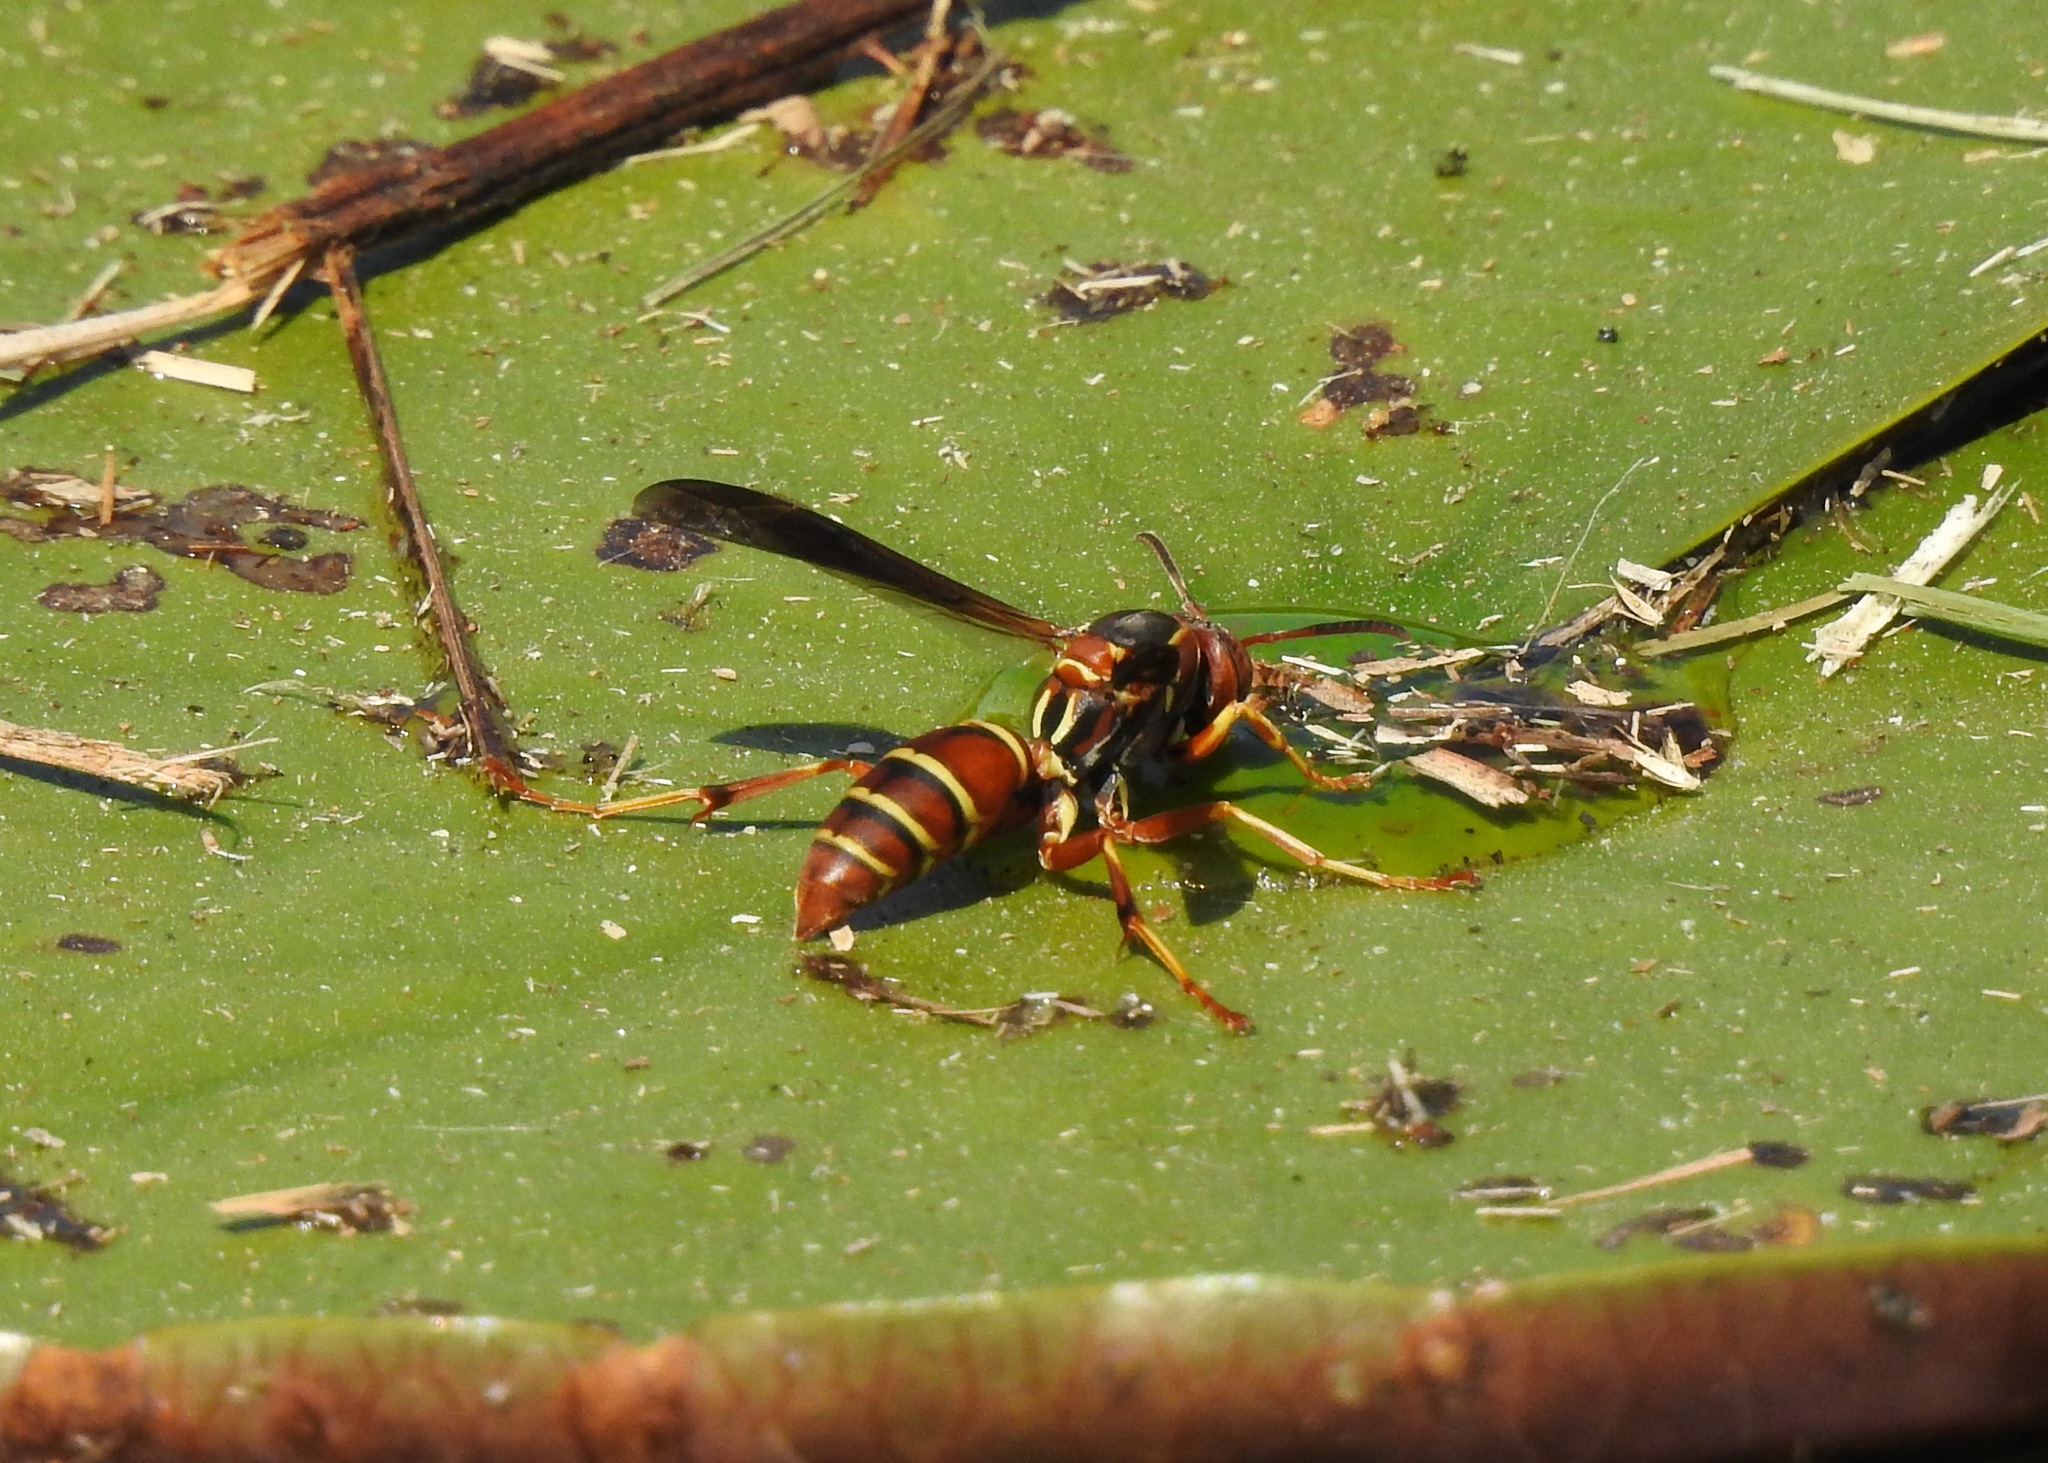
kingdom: Animalia
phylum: Arthropoda
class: Insecta
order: Hymenoptera
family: Eumenidae
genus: Polistes
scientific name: Polistes fuscatus
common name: Dark paper wasp
